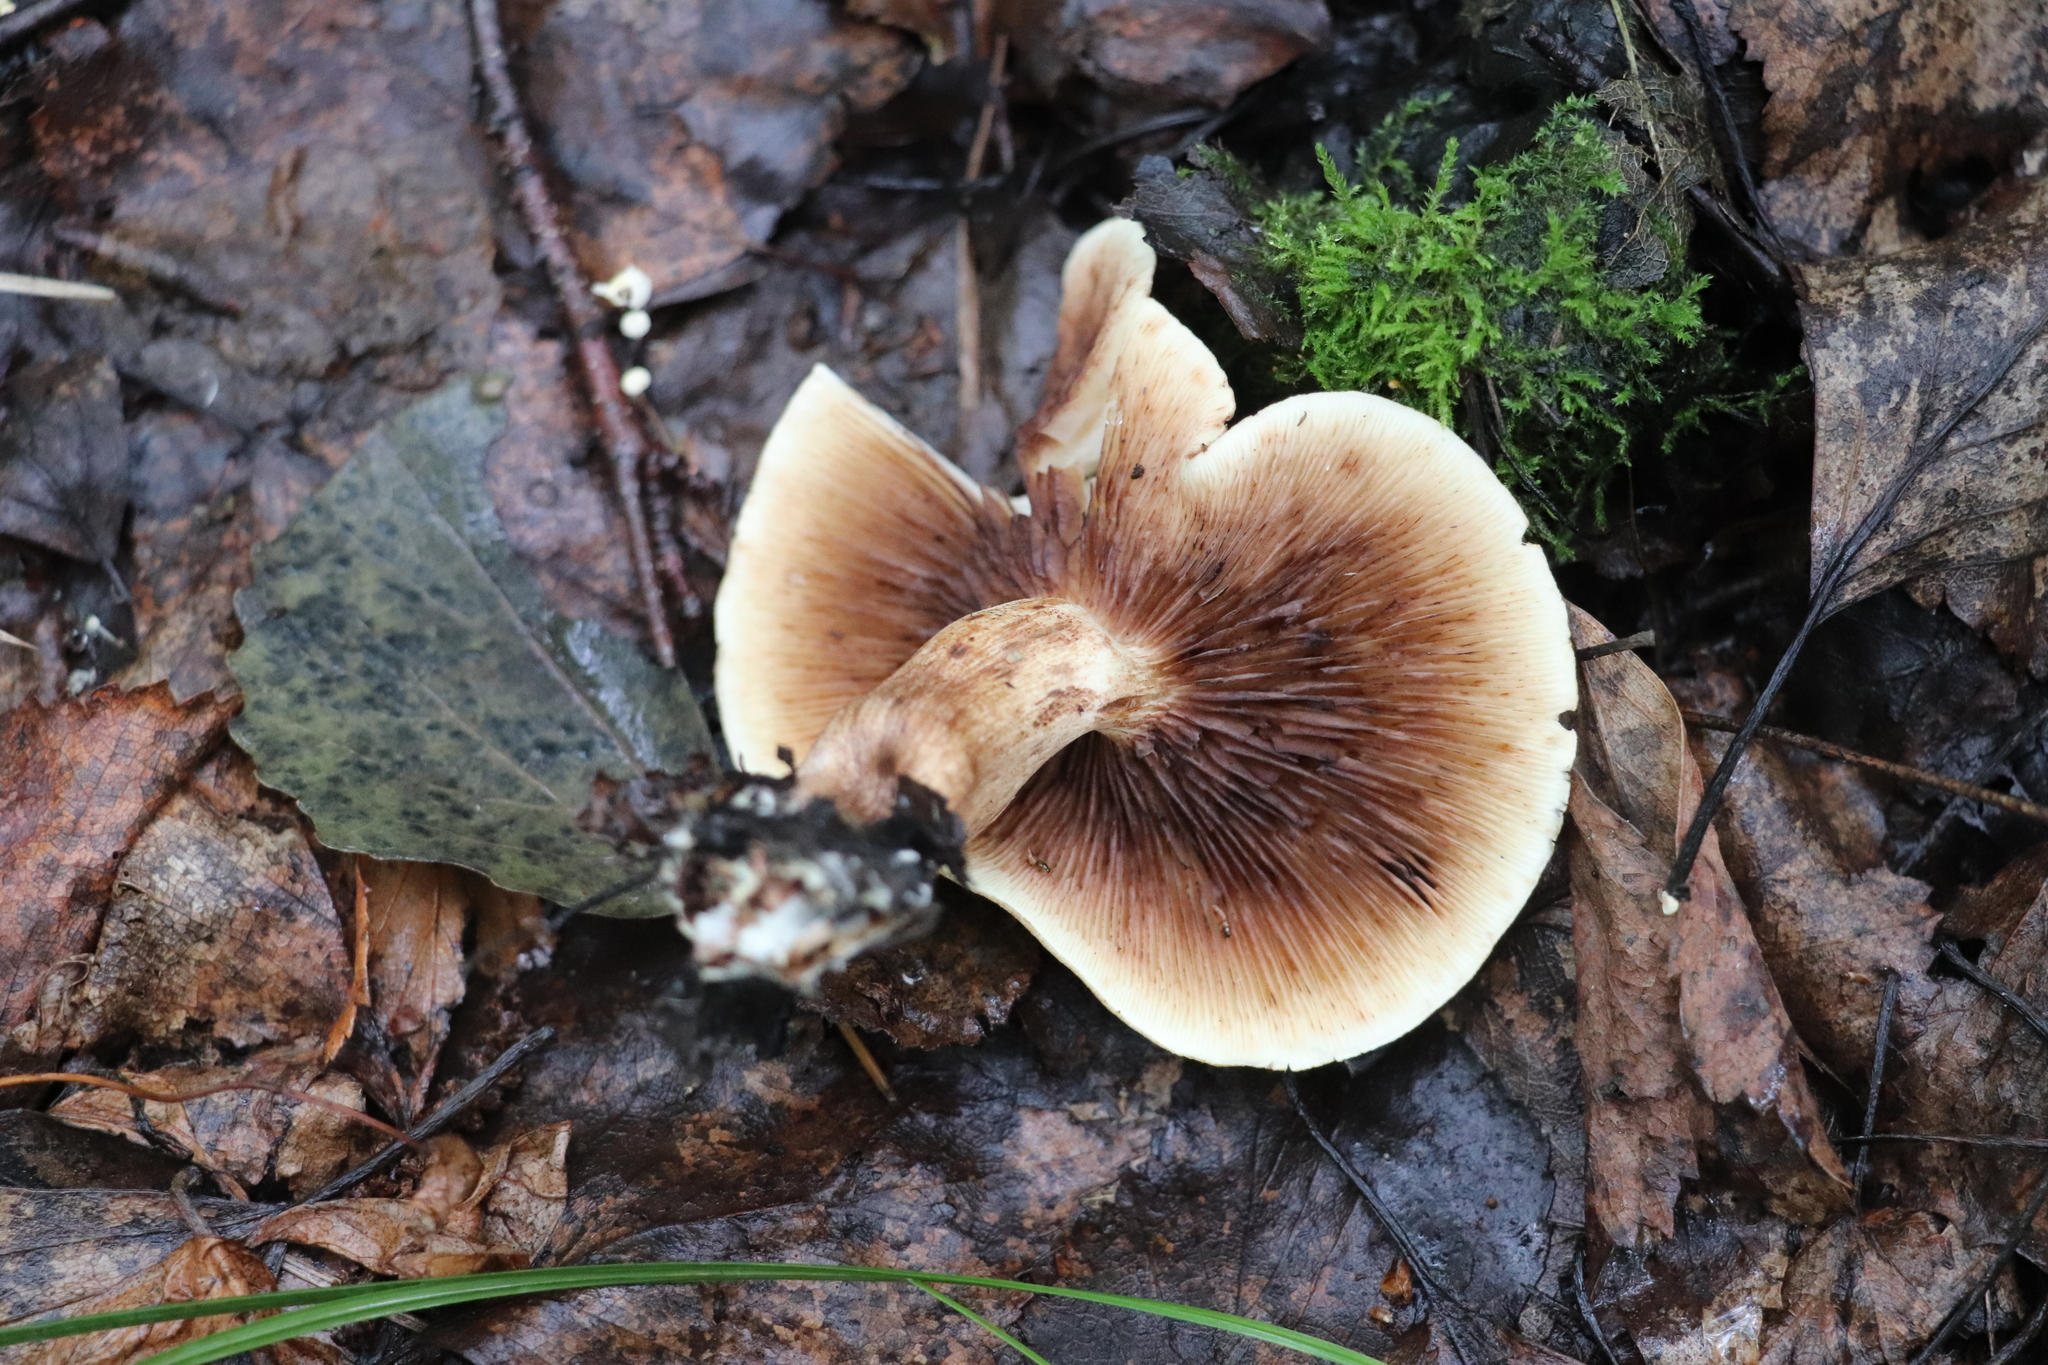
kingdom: Fungi
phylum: Basidiomycota
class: Agaricomycetes
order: Agaricales
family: Tricholomataceae
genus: Tricholoma
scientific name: Tricholoma fulvum
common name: Birch knight
